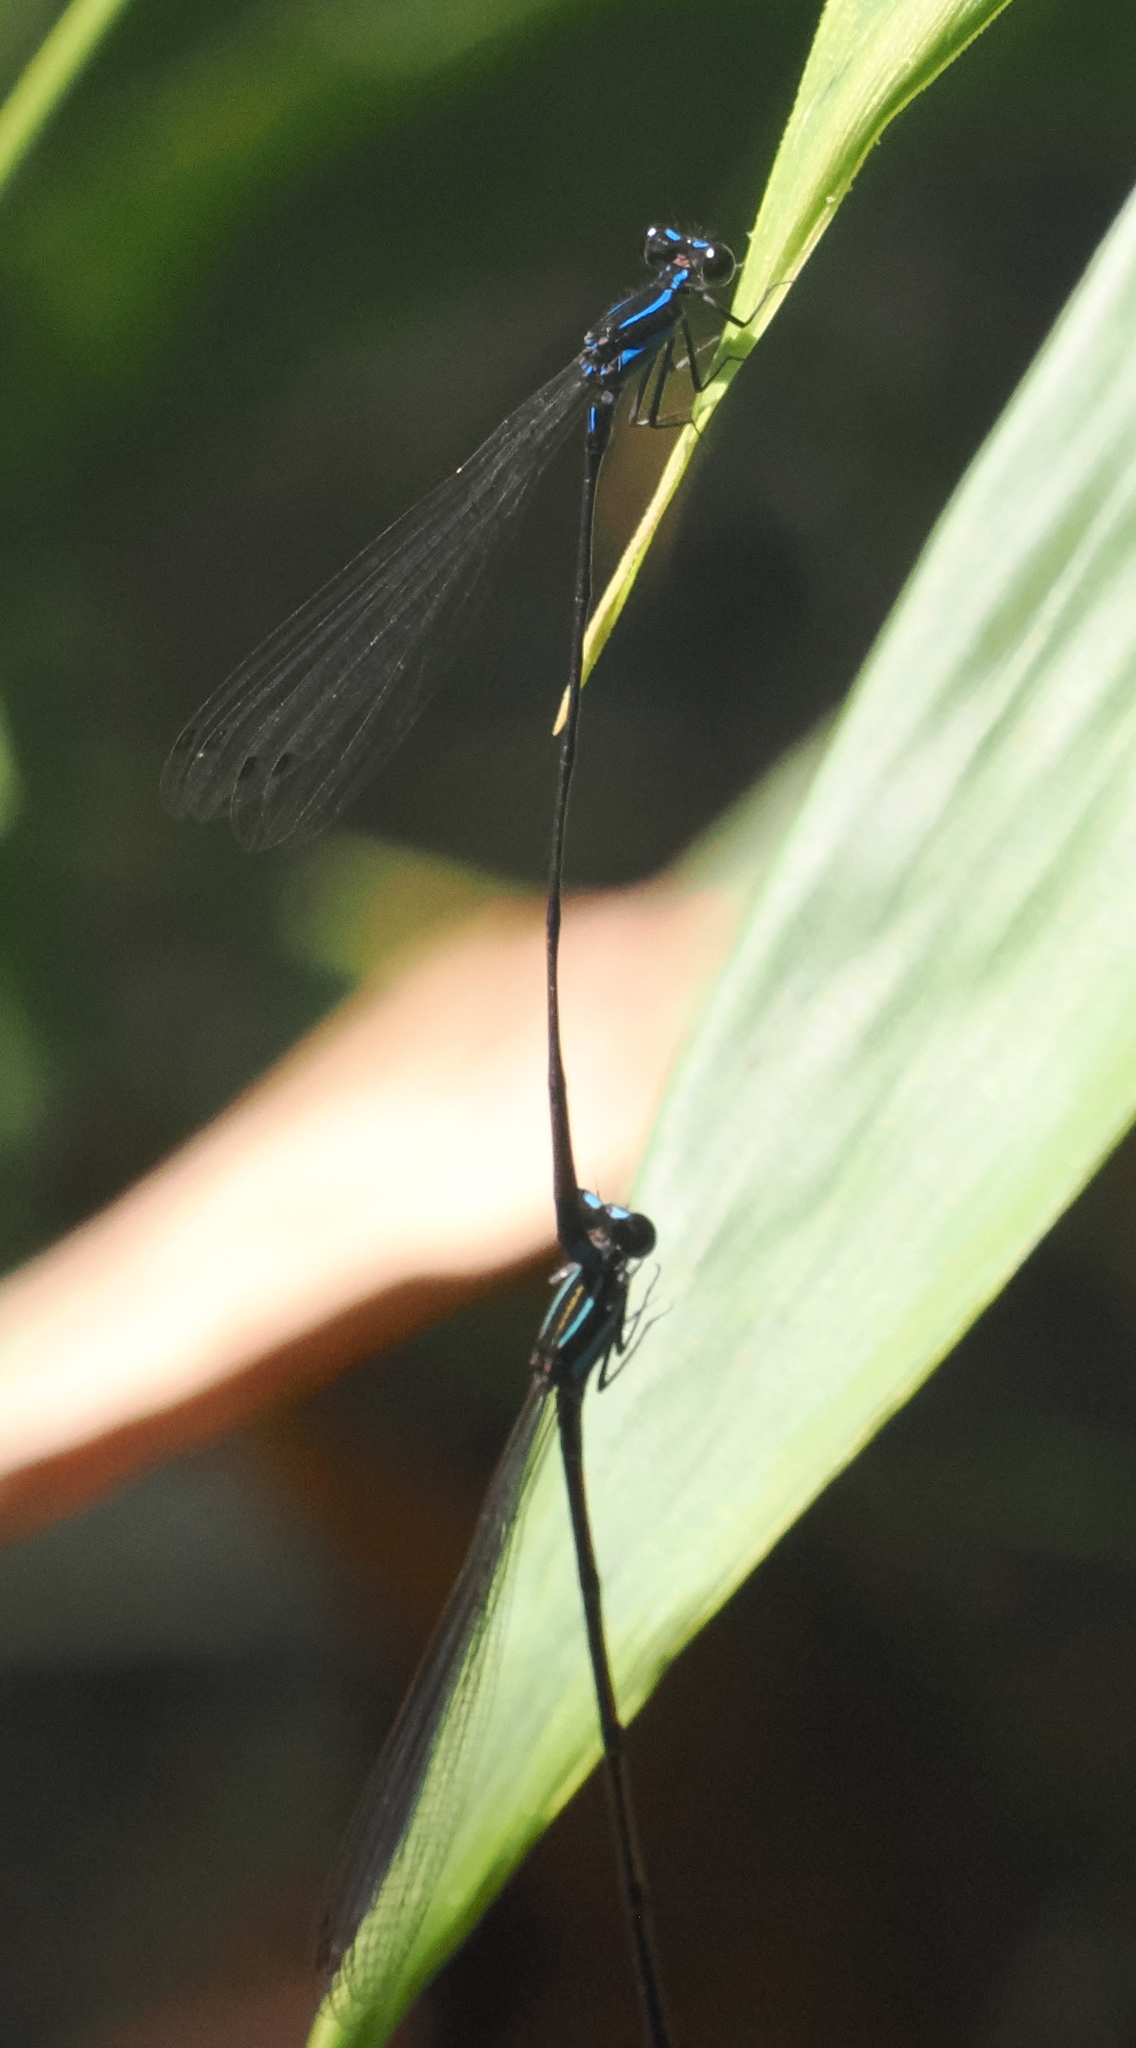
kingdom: Animalia
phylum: Arthropoda
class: Insecta
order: Odonata
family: Platycnemididae
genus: Prodasineura
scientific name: Prodasineura laidlawii
